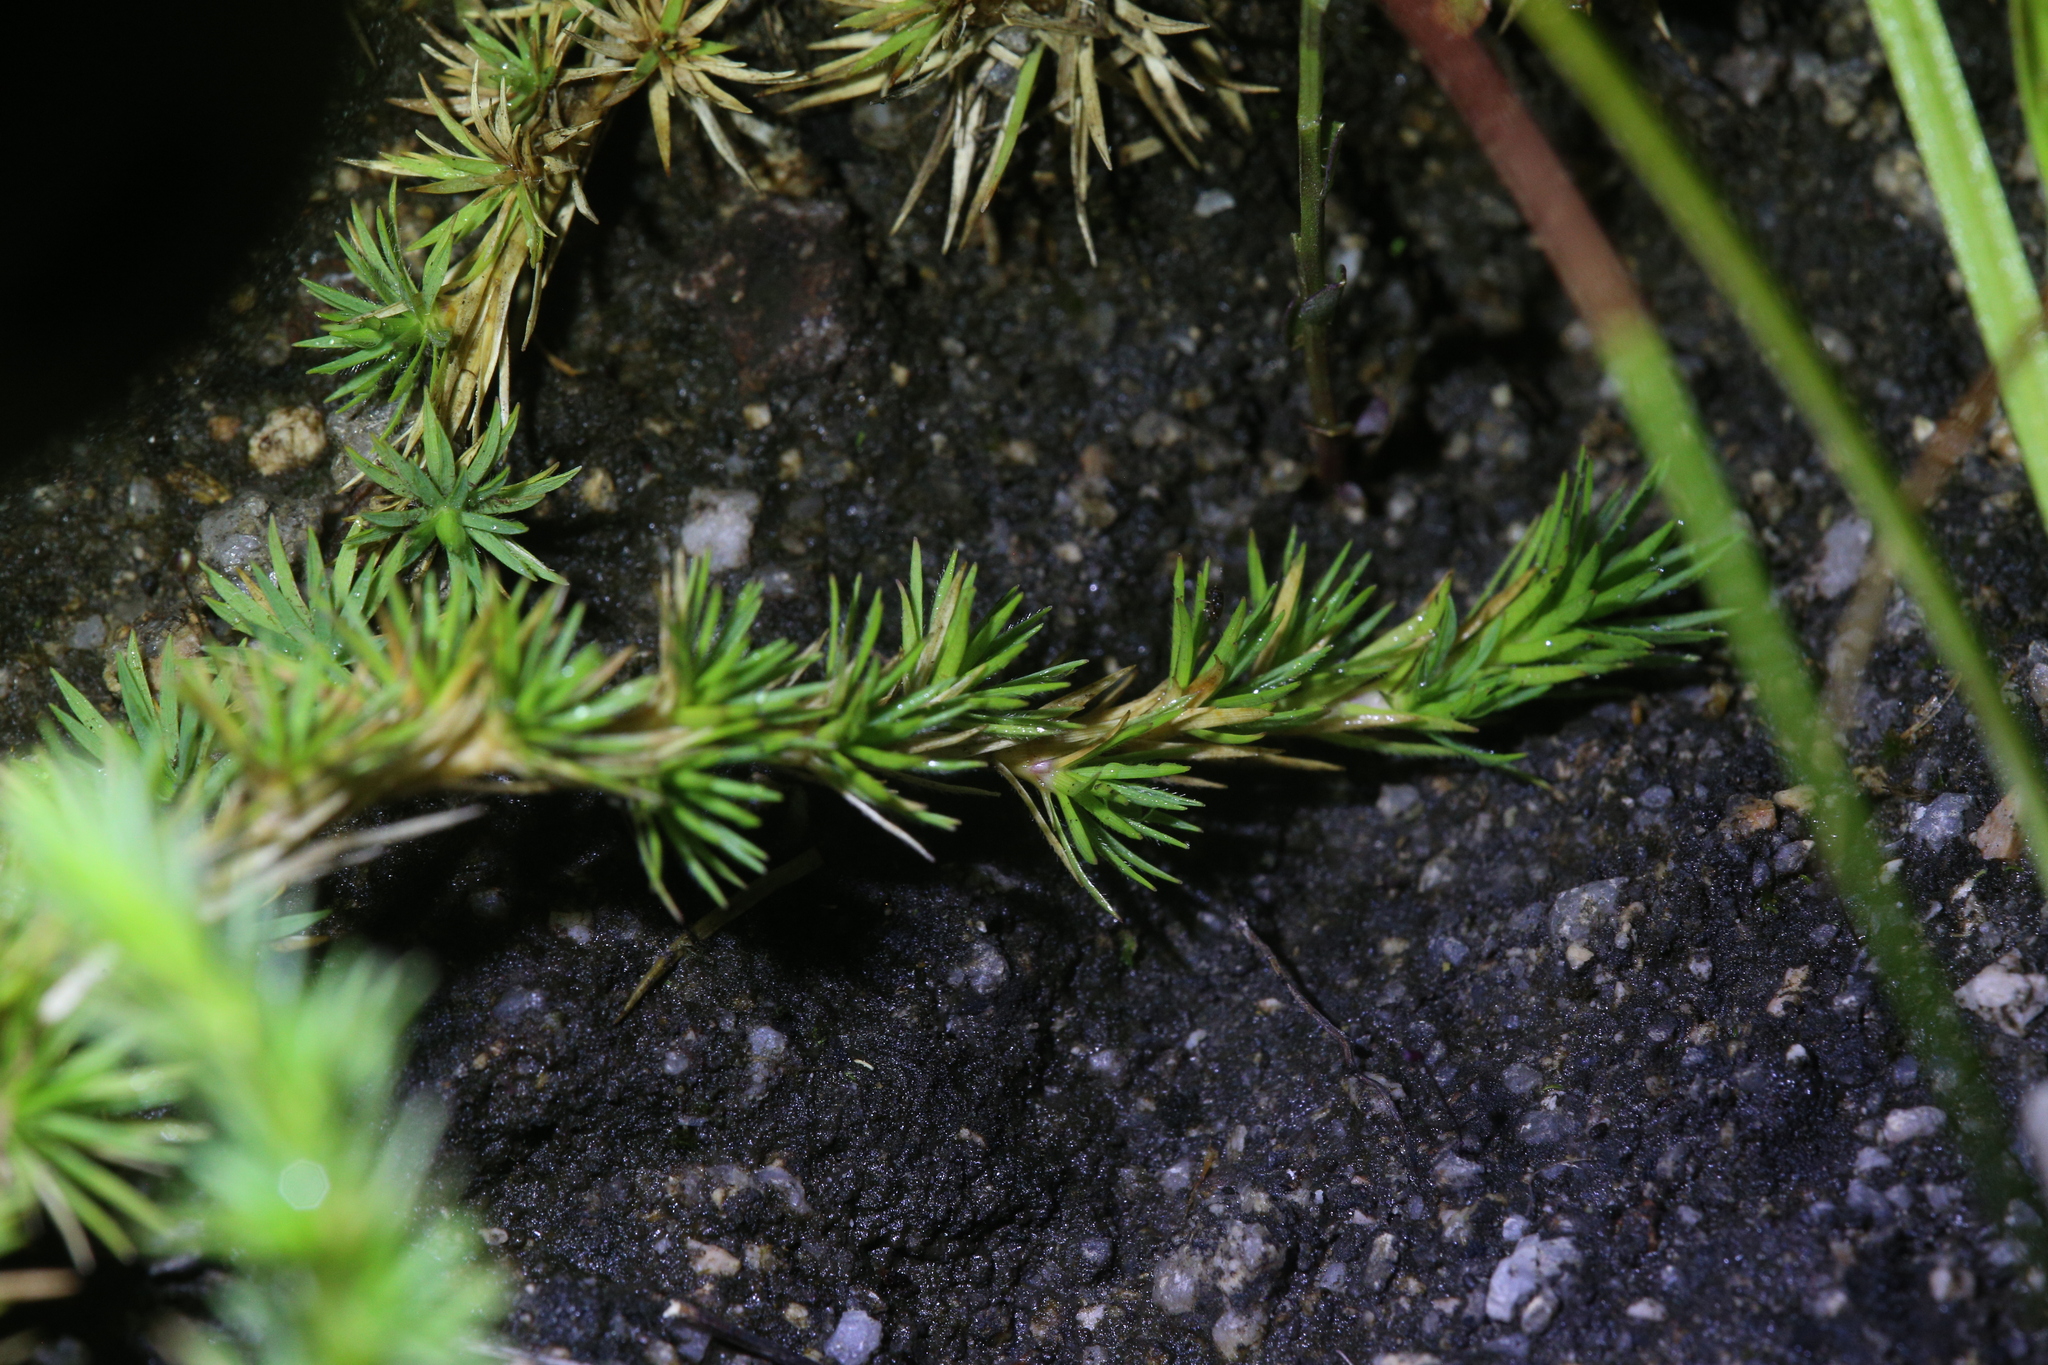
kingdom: Plantae
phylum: Tracheophyta
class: Liliopsida
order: Poales
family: Poaceae
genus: Micraira
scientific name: Micraira subulifolia
